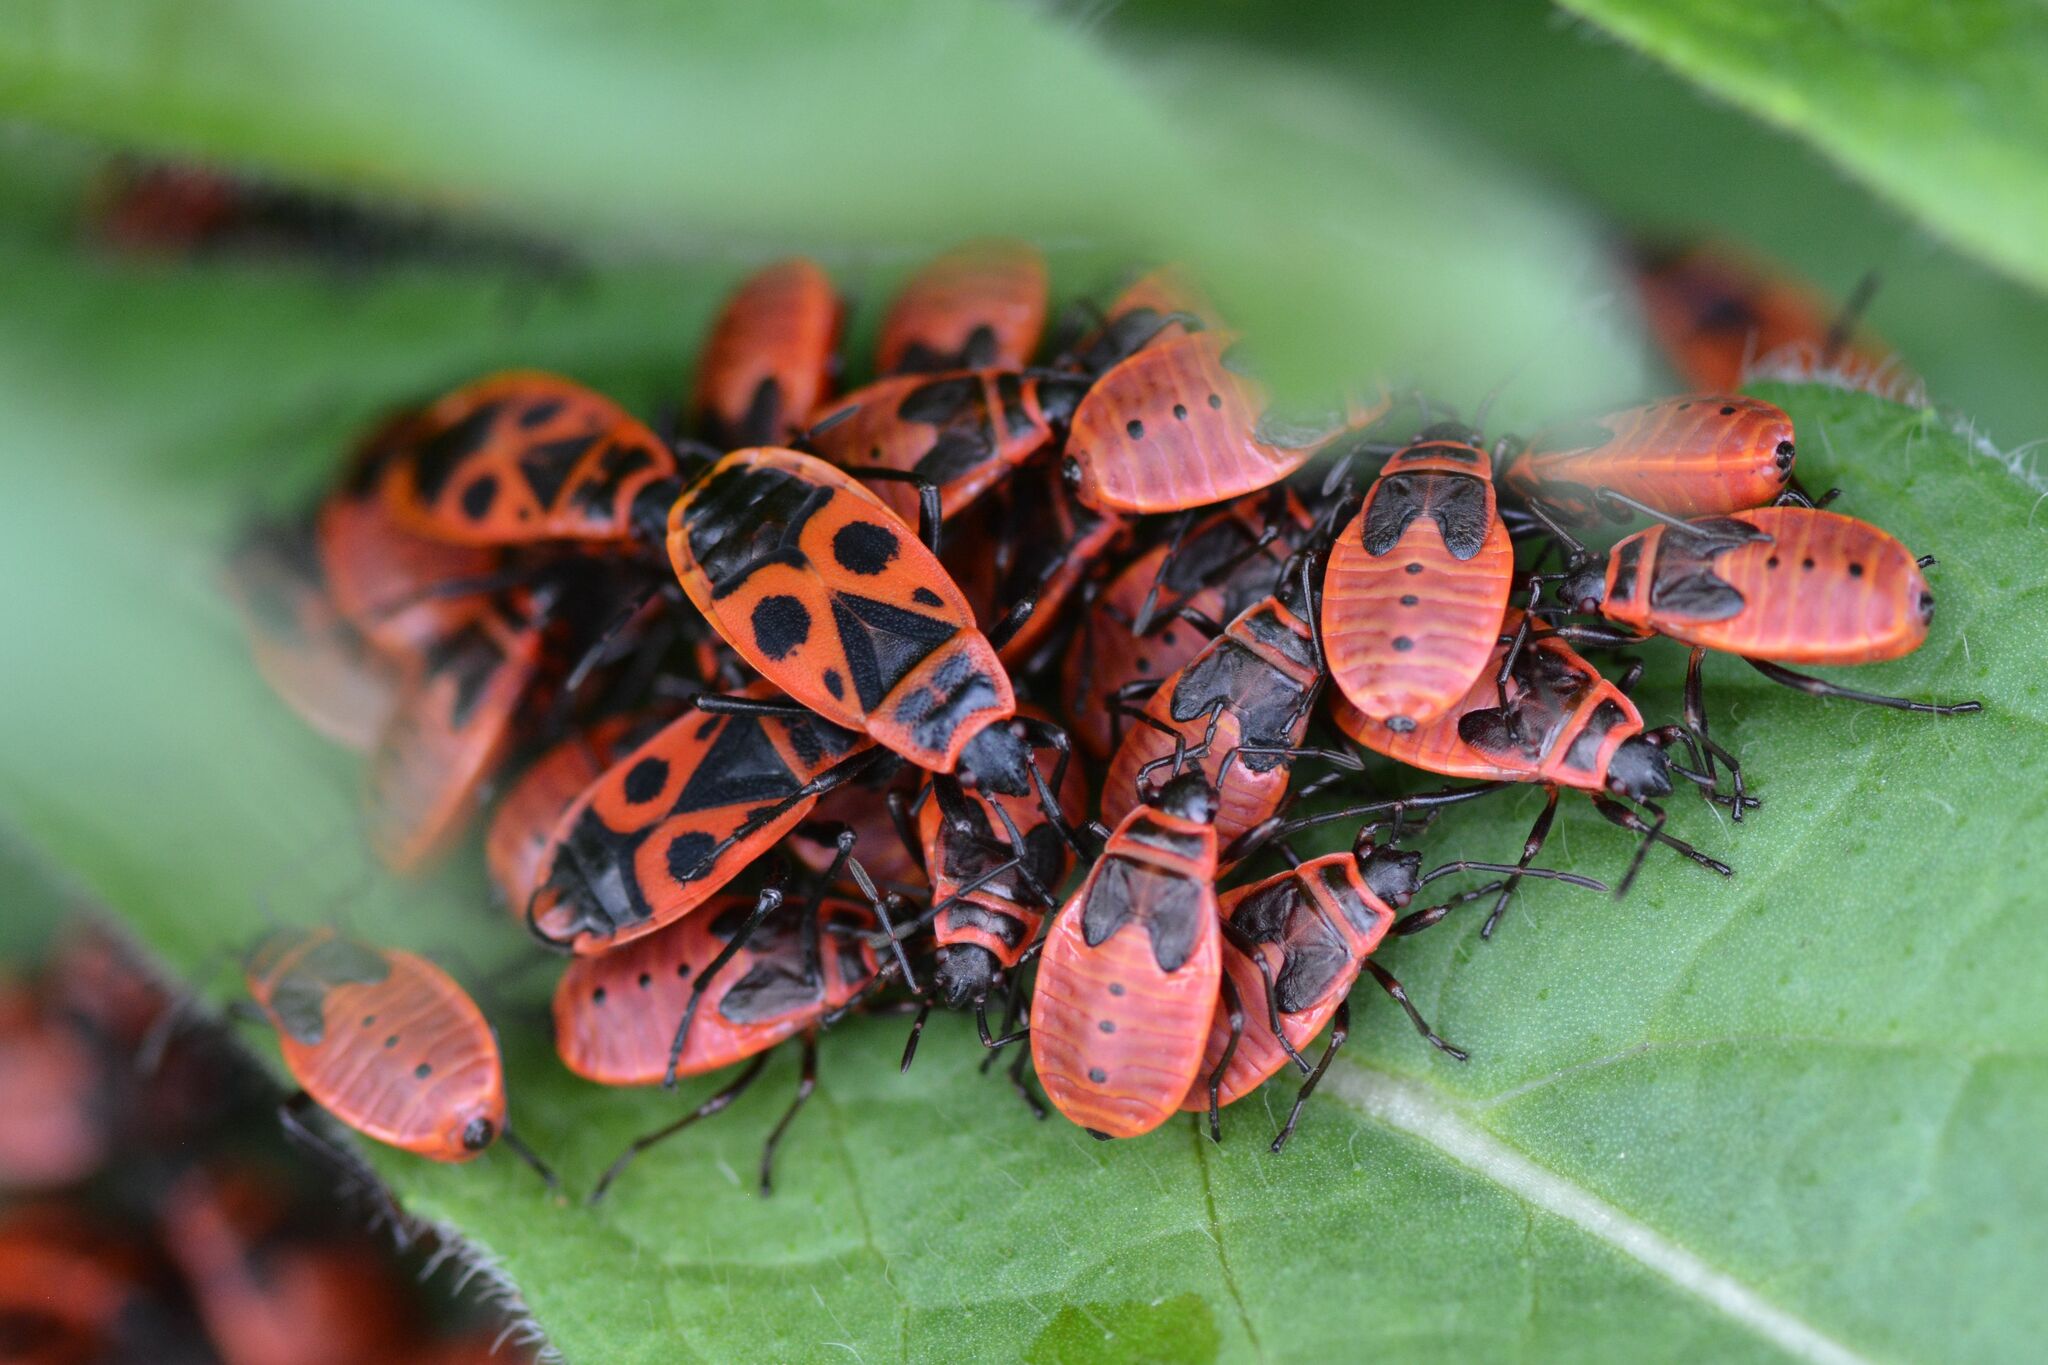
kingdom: Animalia
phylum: Arthropoda
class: Insecta
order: Hemiptera
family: Pyrrhocoridae
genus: Pyrrhocoris
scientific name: Pyrrhocoris apterus
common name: Firebug
